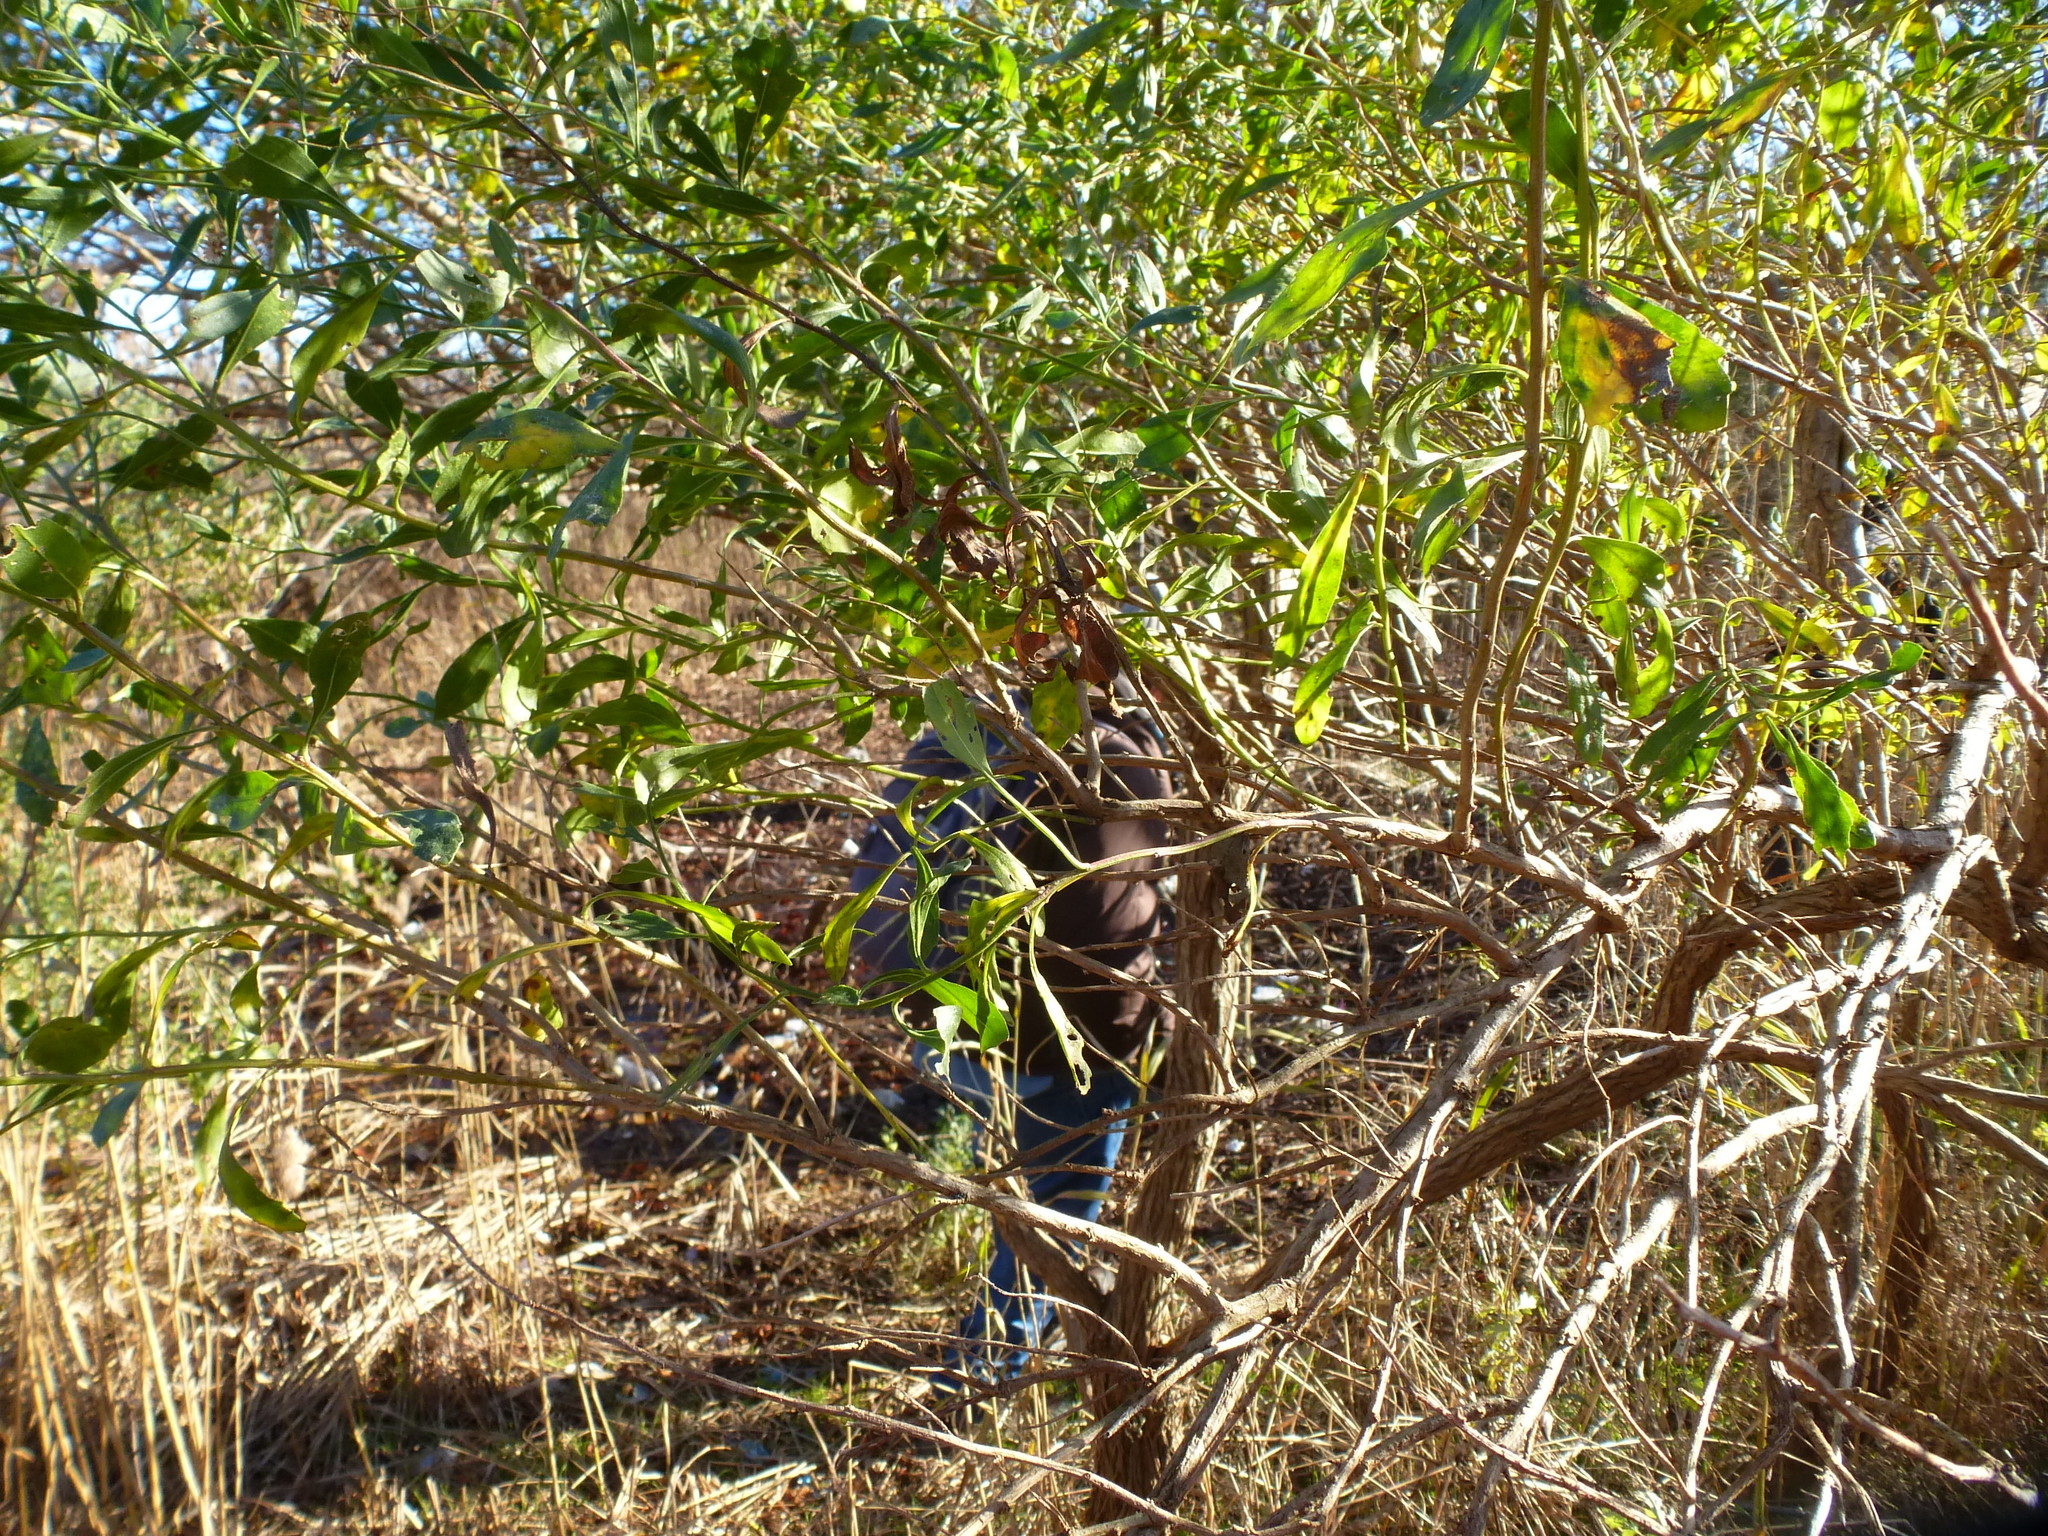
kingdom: Plantae
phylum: Tracheophyta
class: Magnoliopsida
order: Asterales
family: Asteraceae
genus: Baccharis
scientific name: Baccharis halimifolia
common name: Eastern baccharis
